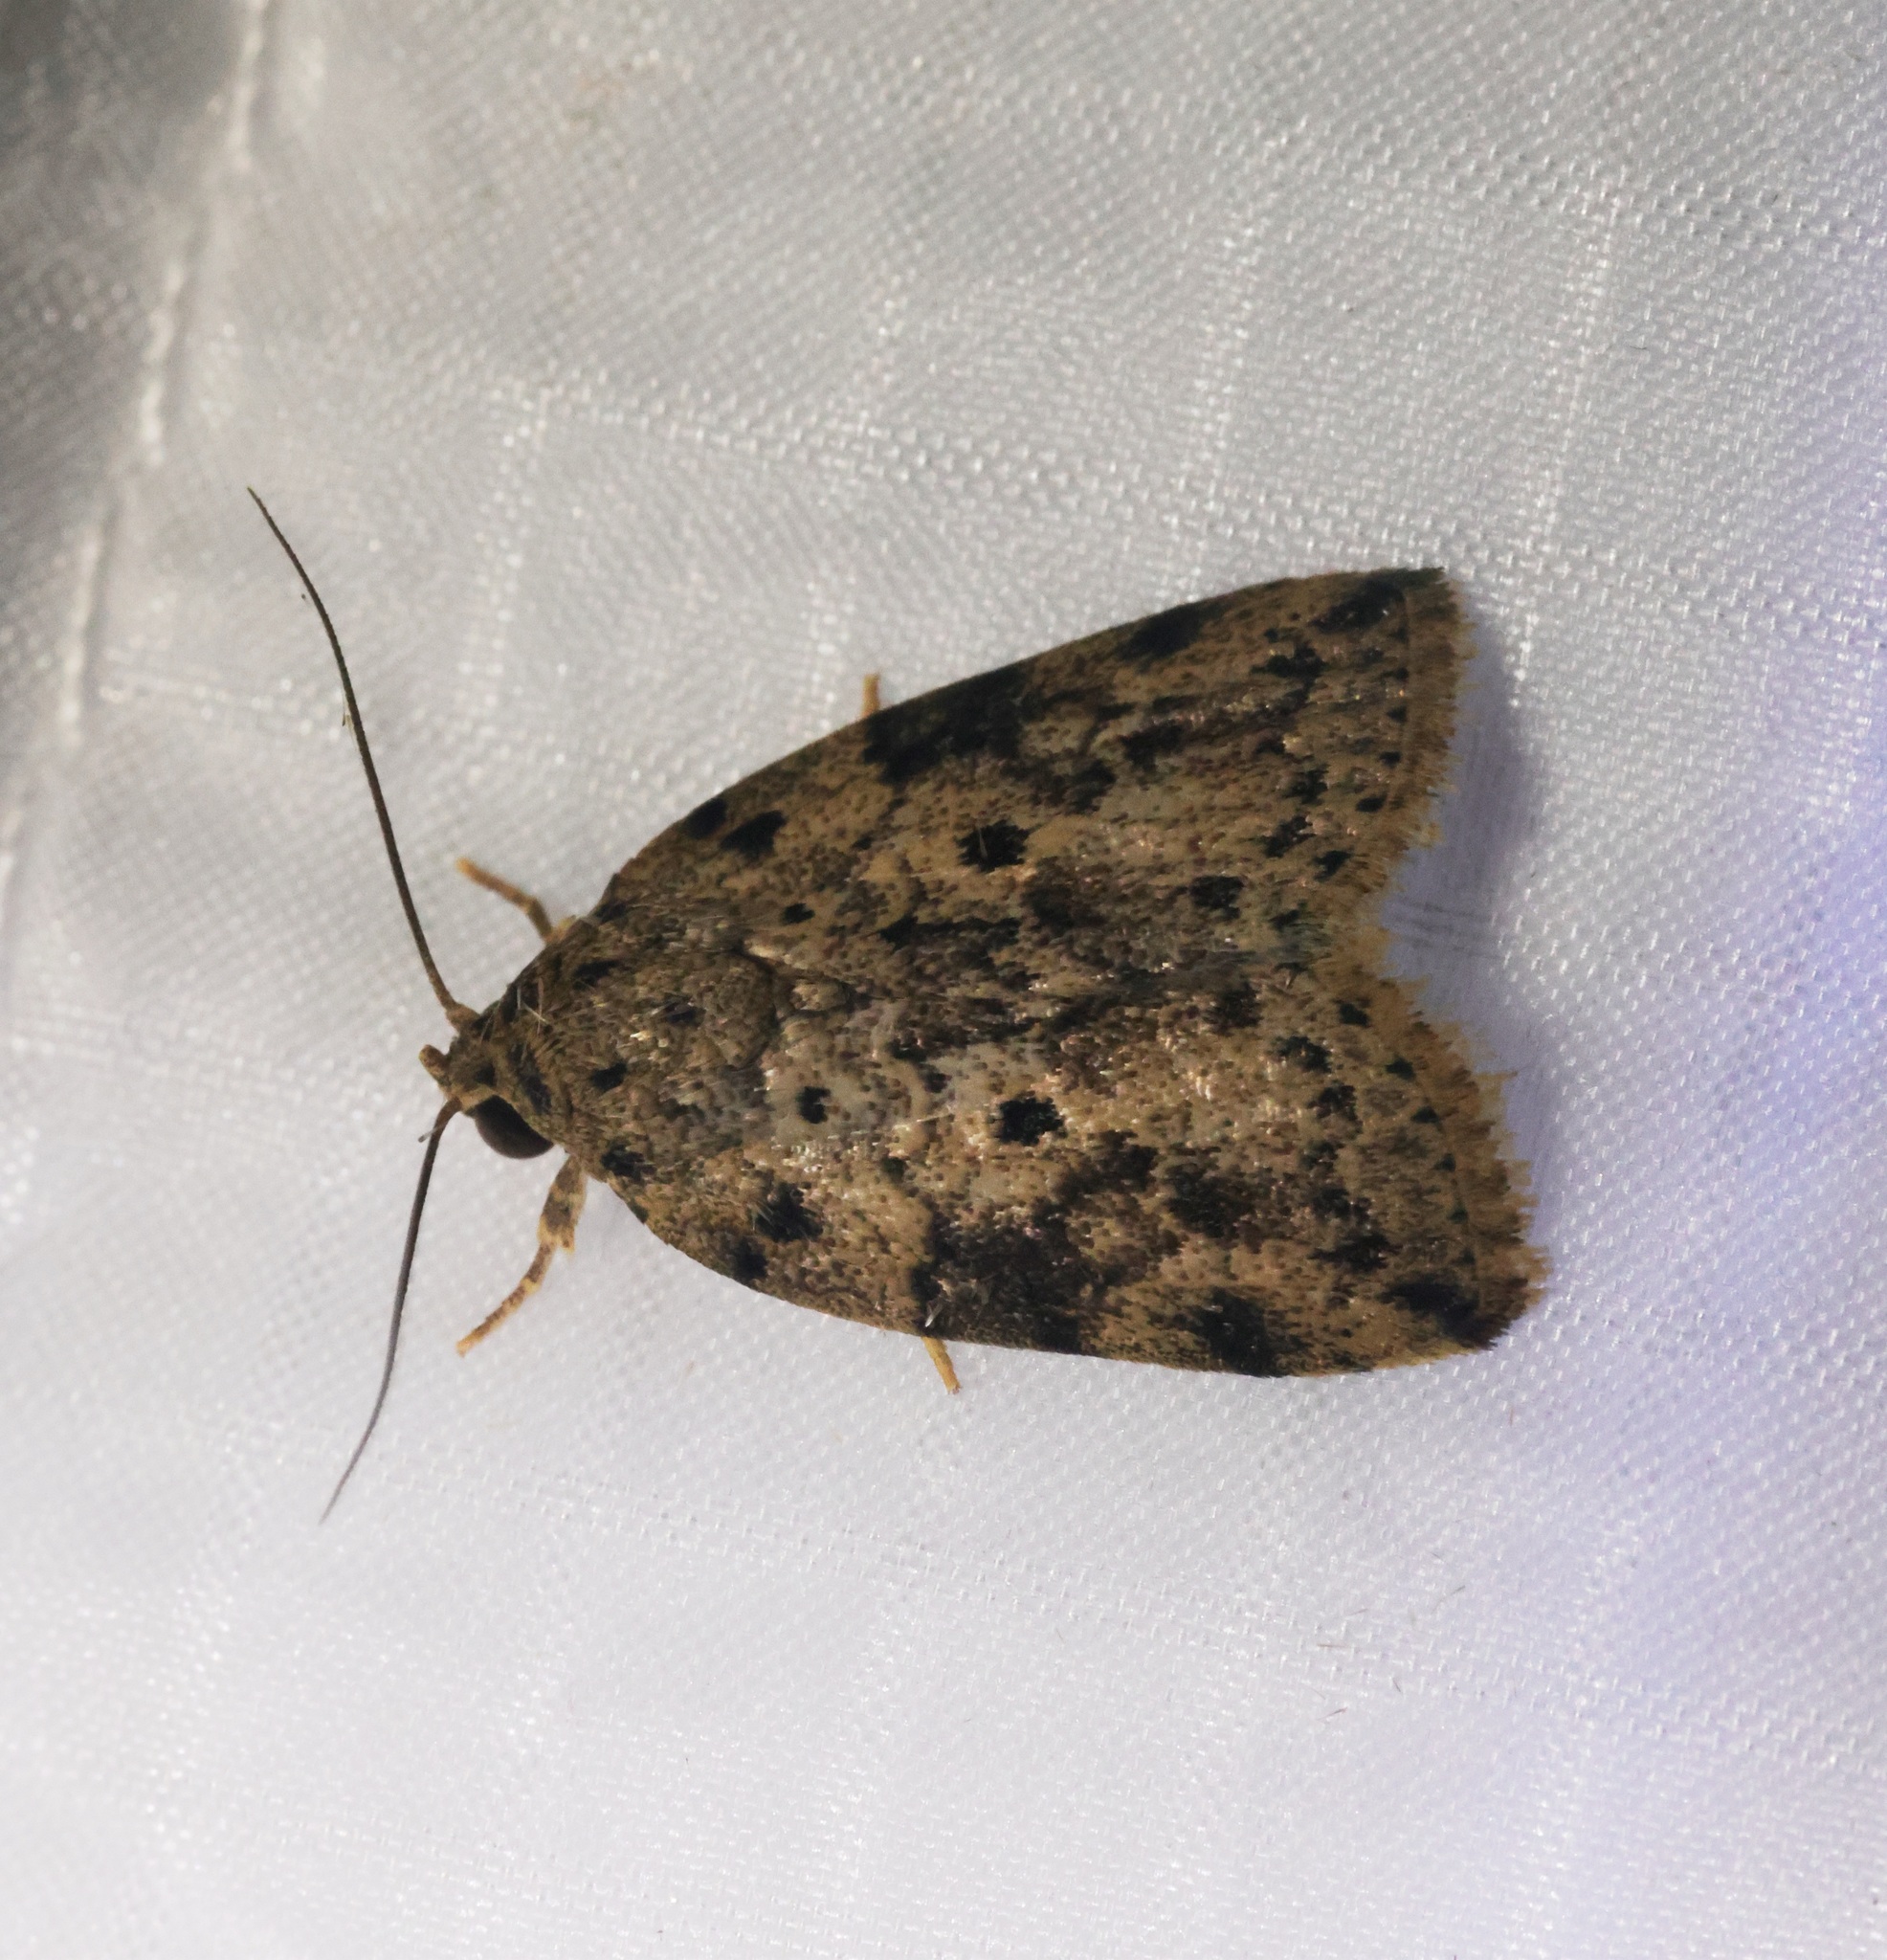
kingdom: Animalia
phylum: Arthropoda
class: Insecta
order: Lepidoptera
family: Nolidae
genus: Giaura
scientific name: Giaura multipunctata
